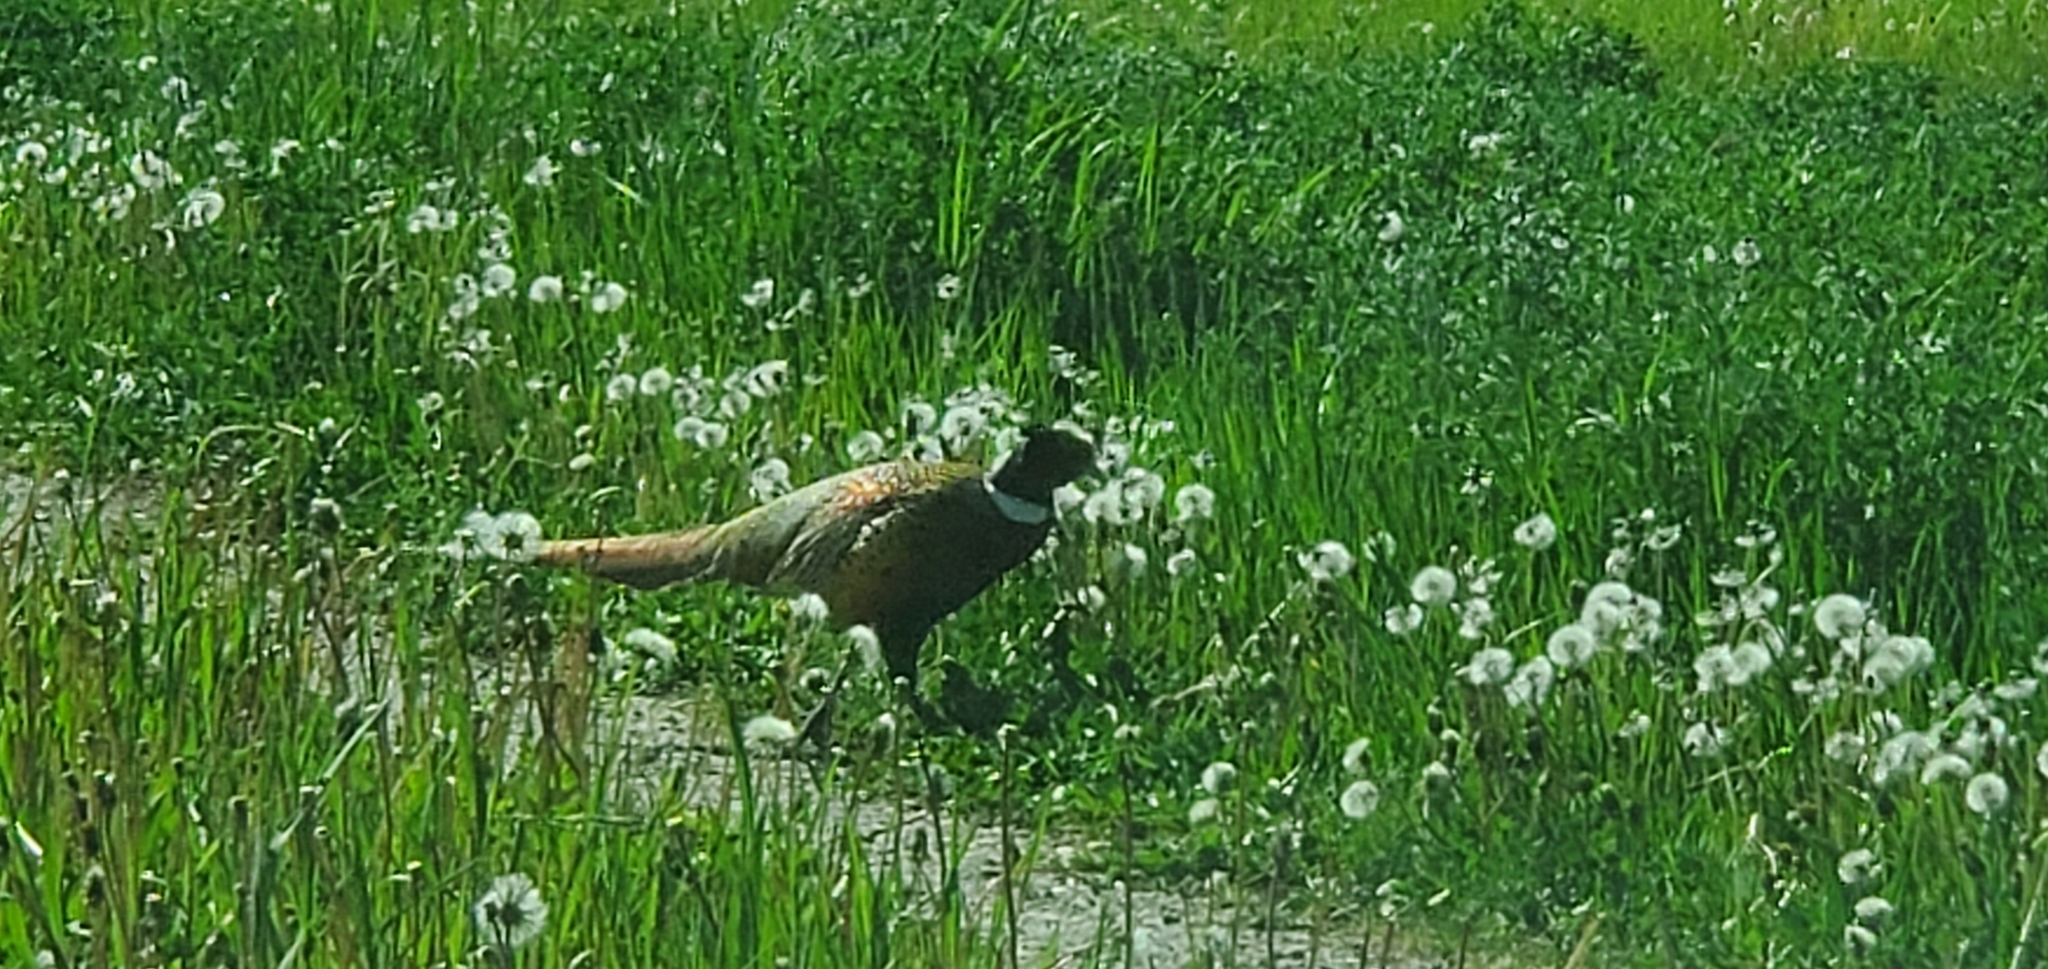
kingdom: Animalia
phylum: Chordata
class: Aves
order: Galliformes
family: Phasianidae
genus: Phasianus
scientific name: Phasianus colchicus
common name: Common pheasant
